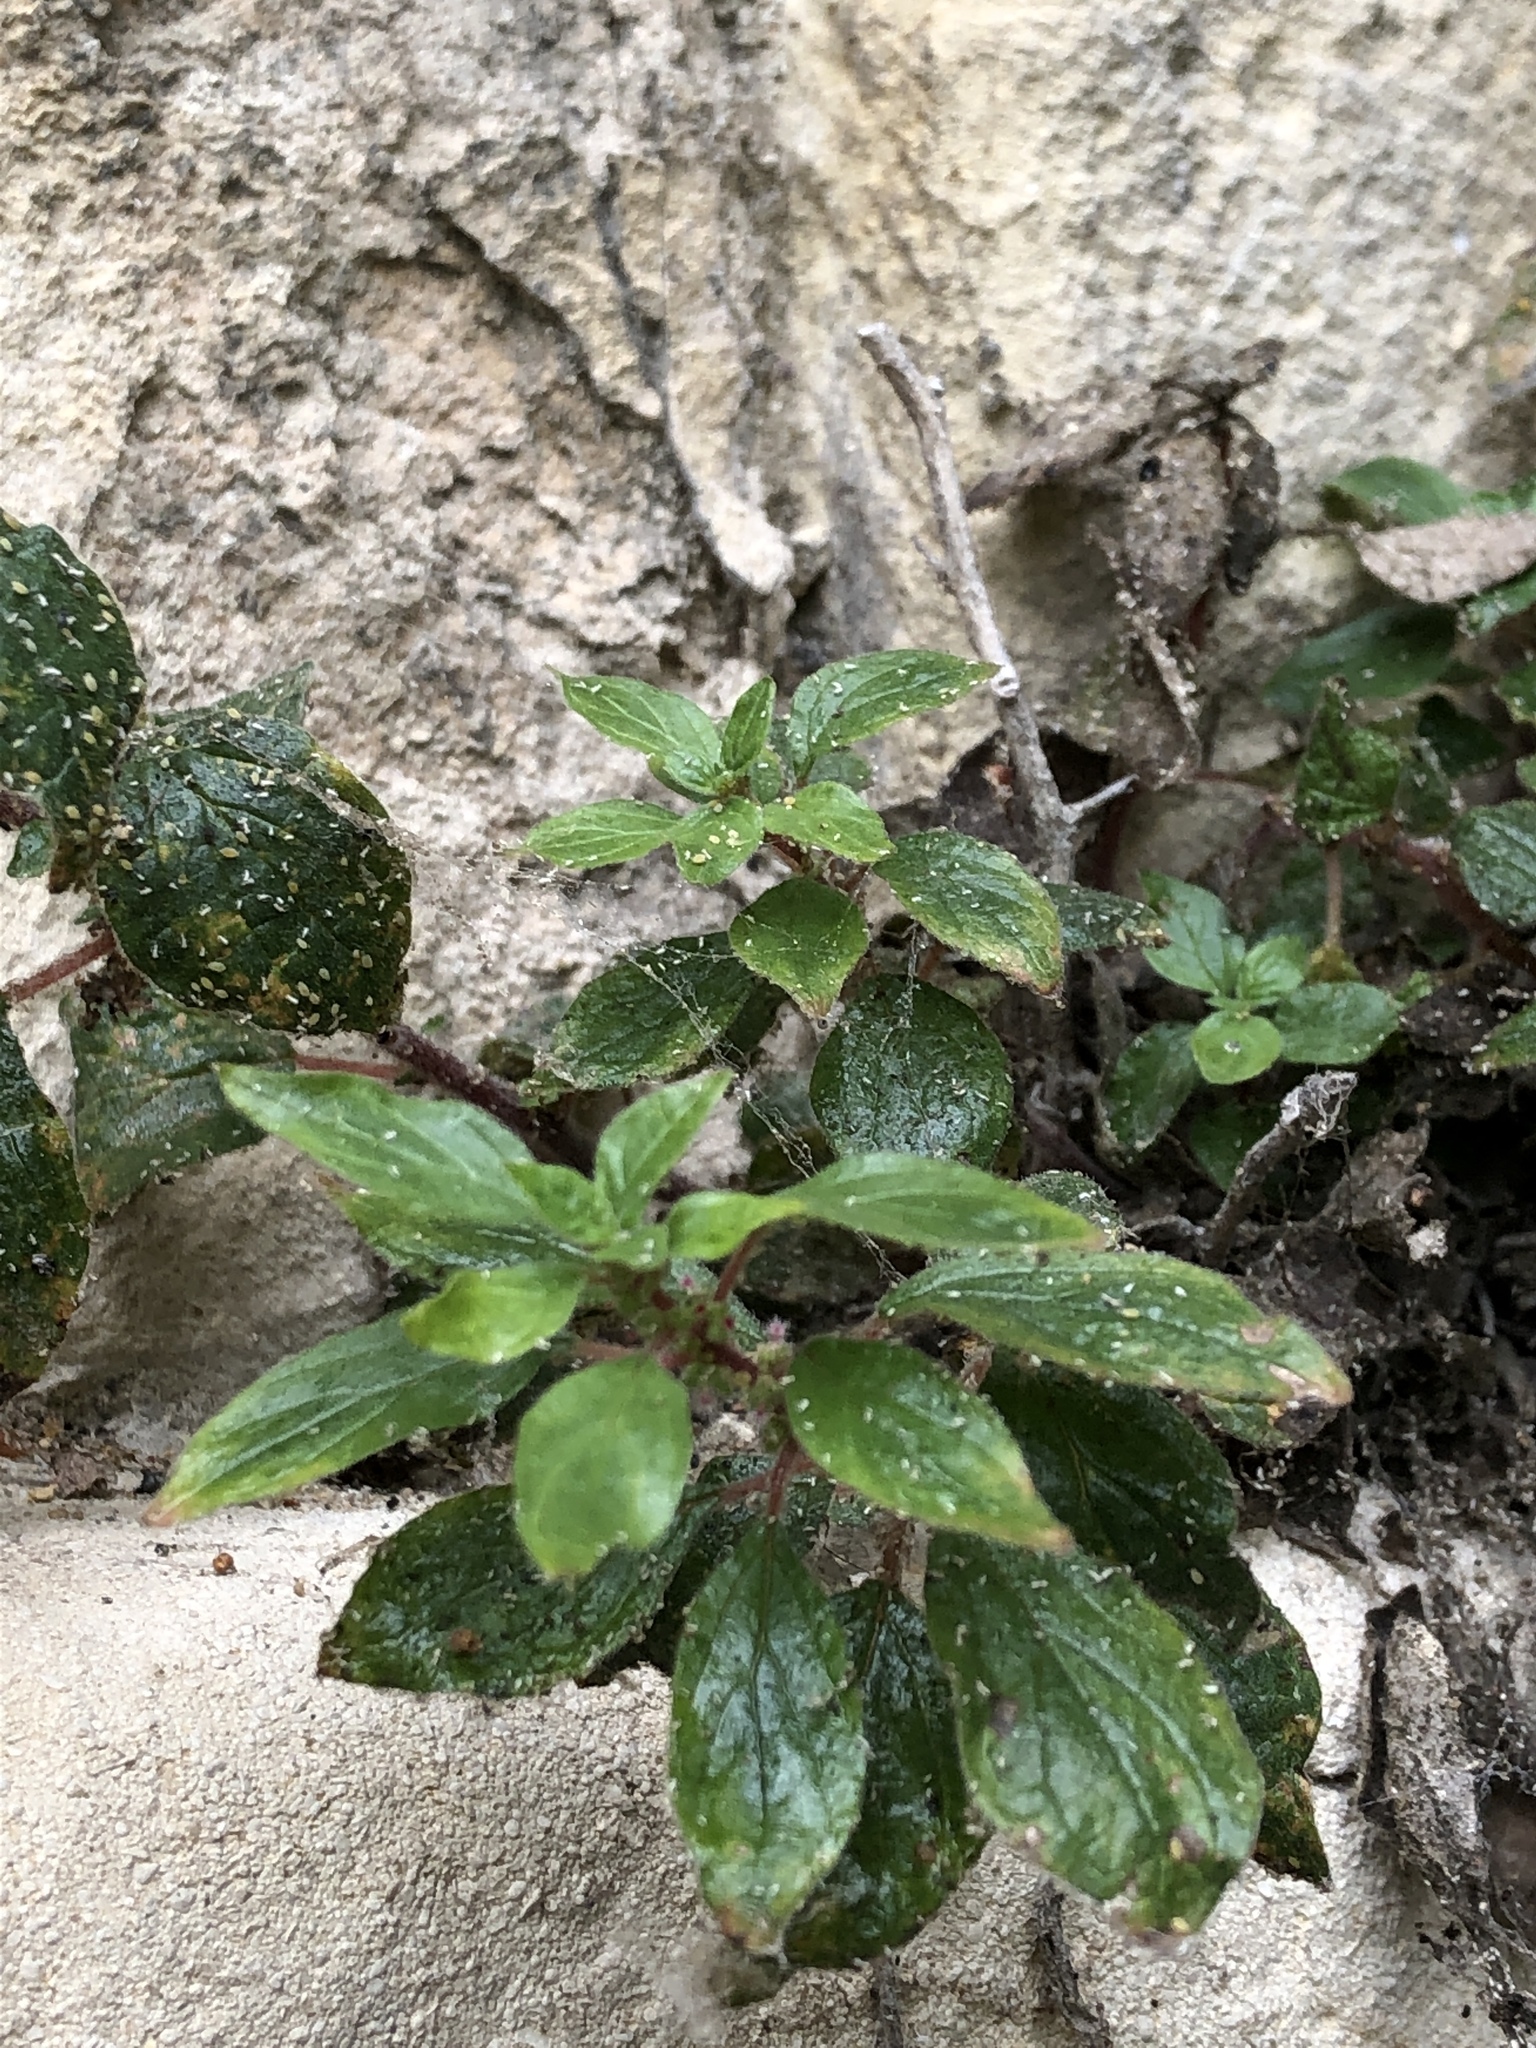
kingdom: Plantae
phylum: Tracheophyta
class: Magnoliopsida
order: Rosales
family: Urticaceae
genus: Parietaria
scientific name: Parietaria judaica
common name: Pellitory-of-the-wall
